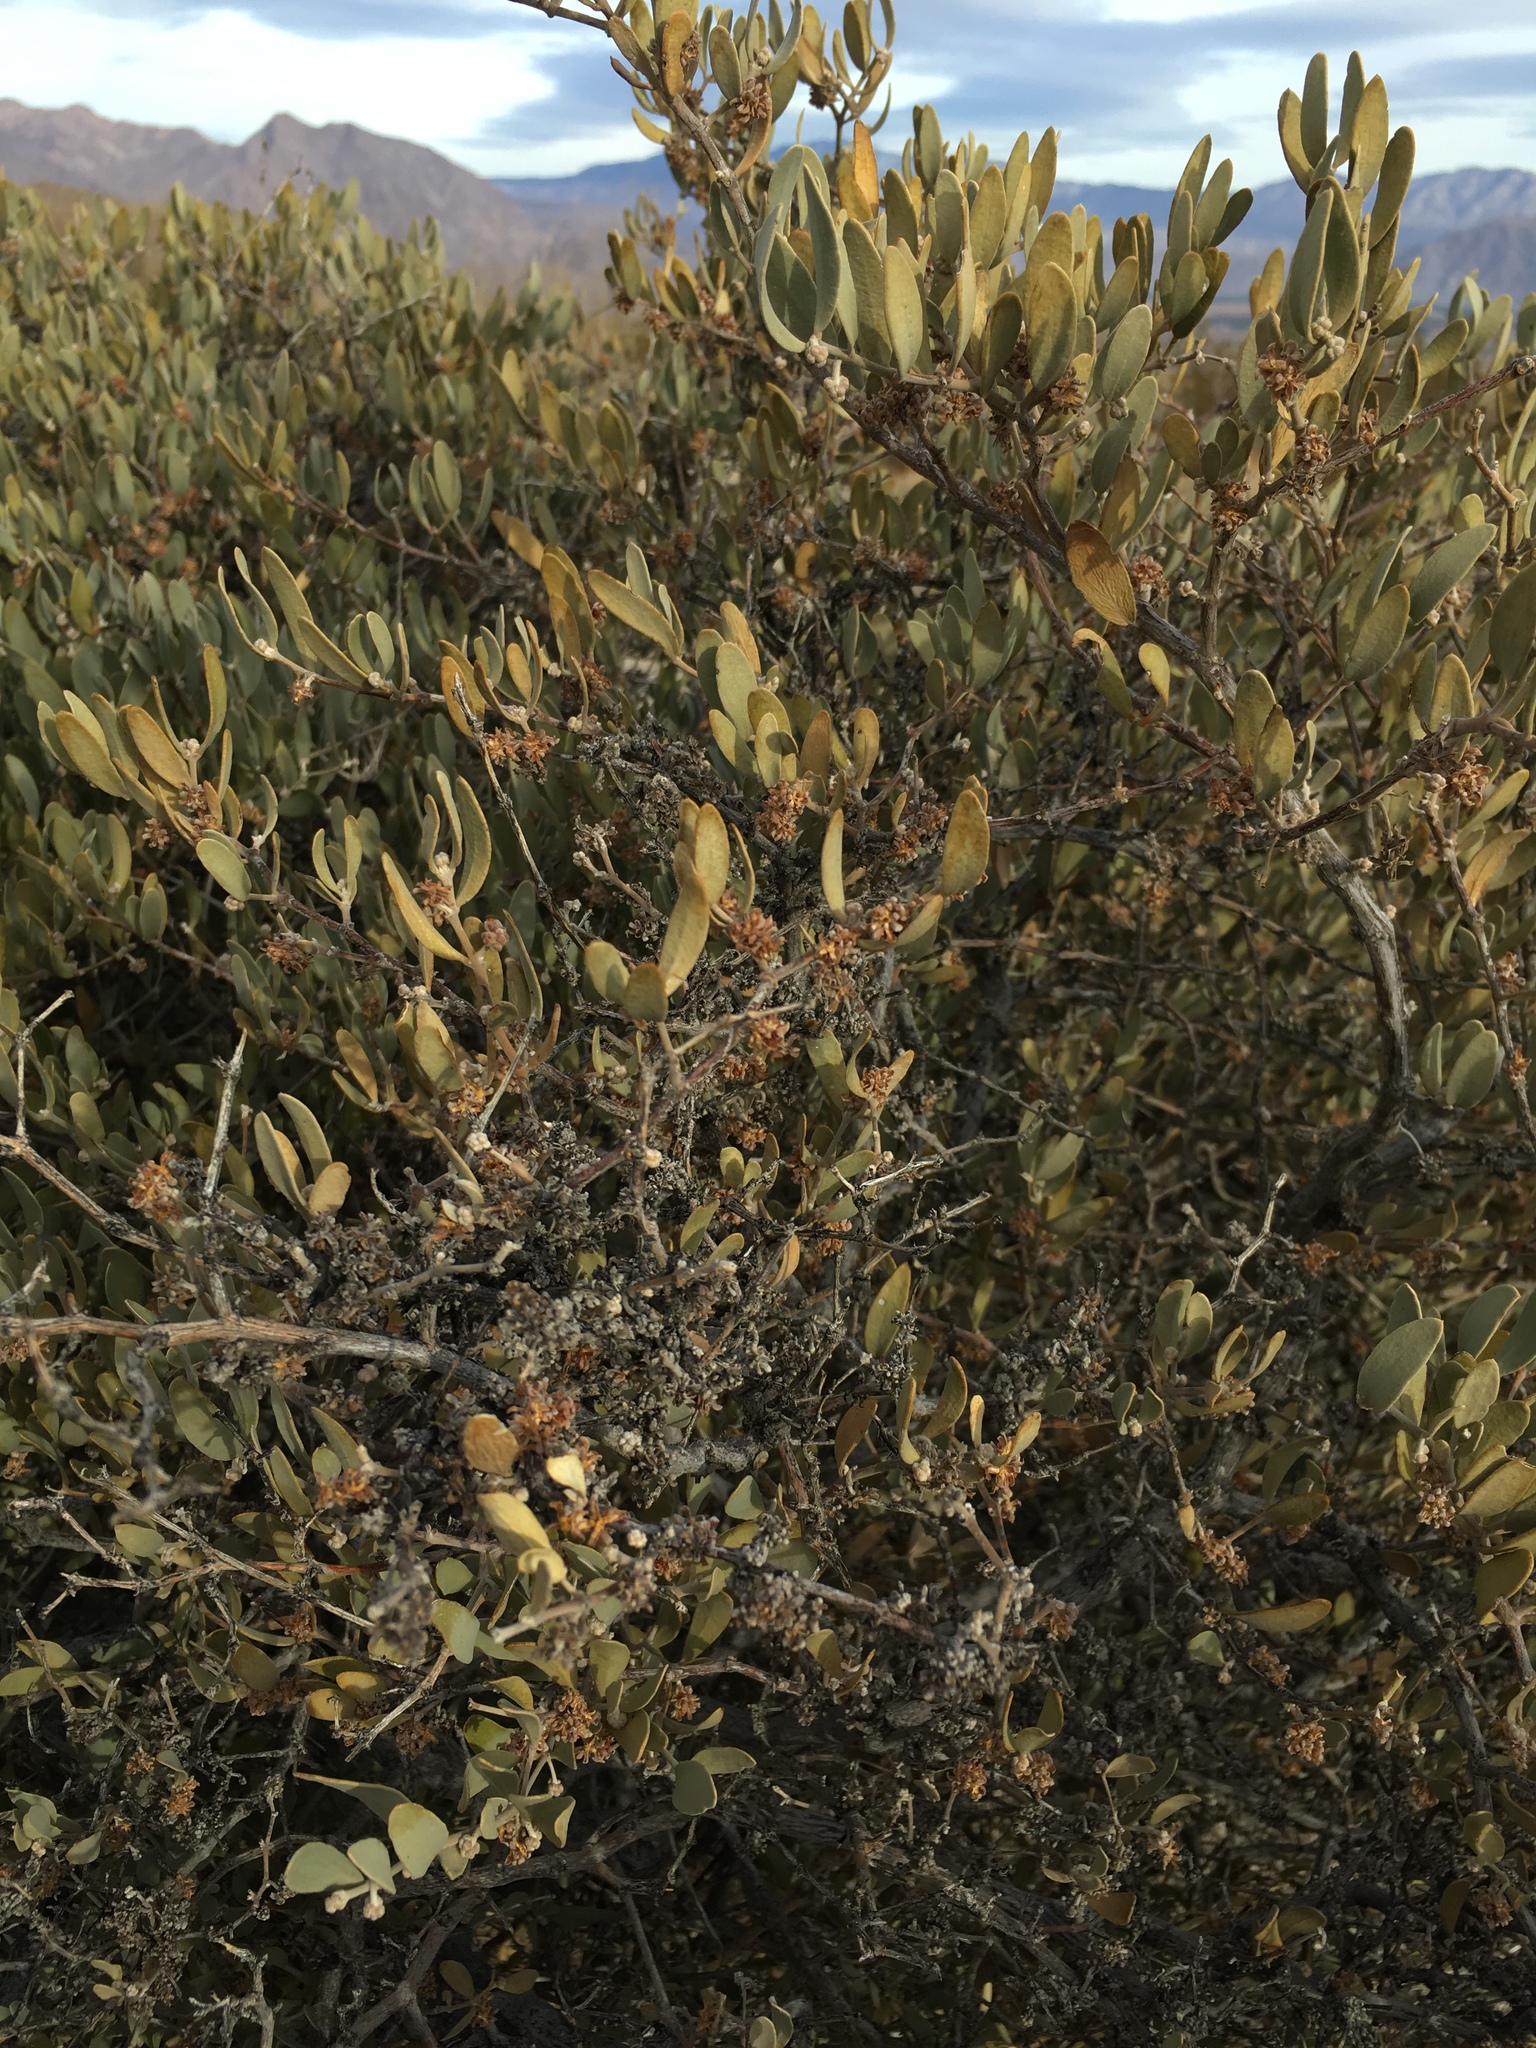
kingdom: Plantae
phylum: Tracheophyta
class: Magnoliopsida
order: Caryophyllales
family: Simmondsiaceae
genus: Simmondsia
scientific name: Simmondsia chinensis
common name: Jojoba
